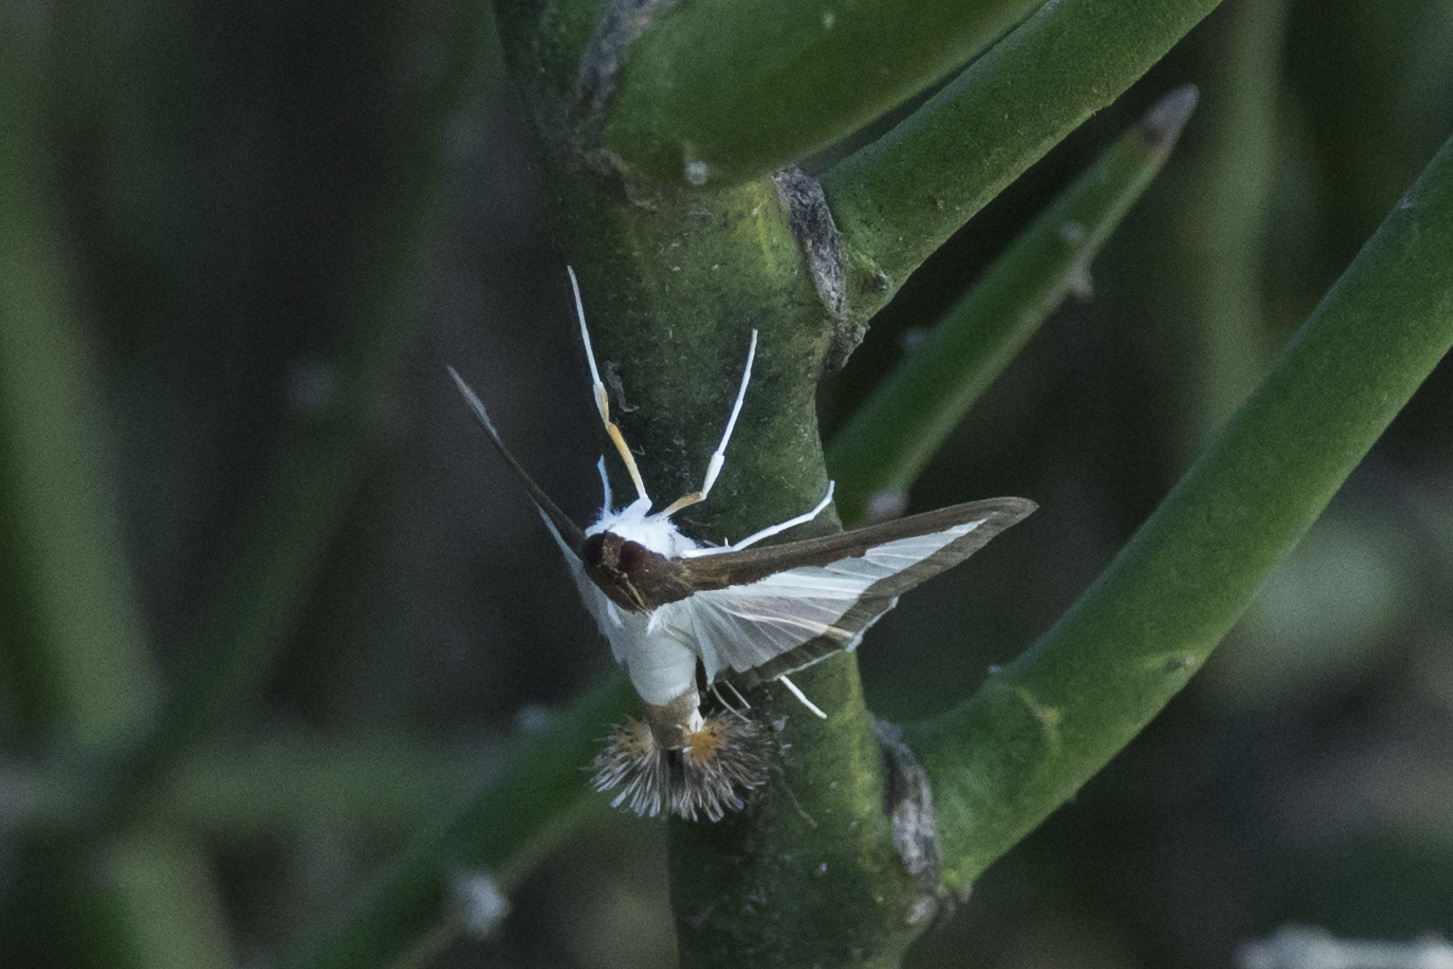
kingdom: Animalia
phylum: Arthropoda
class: Insecta
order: Lepidoptera
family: Crambidae
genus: Diaphania
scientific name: Diaphania hyalinata
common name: Melonworm
